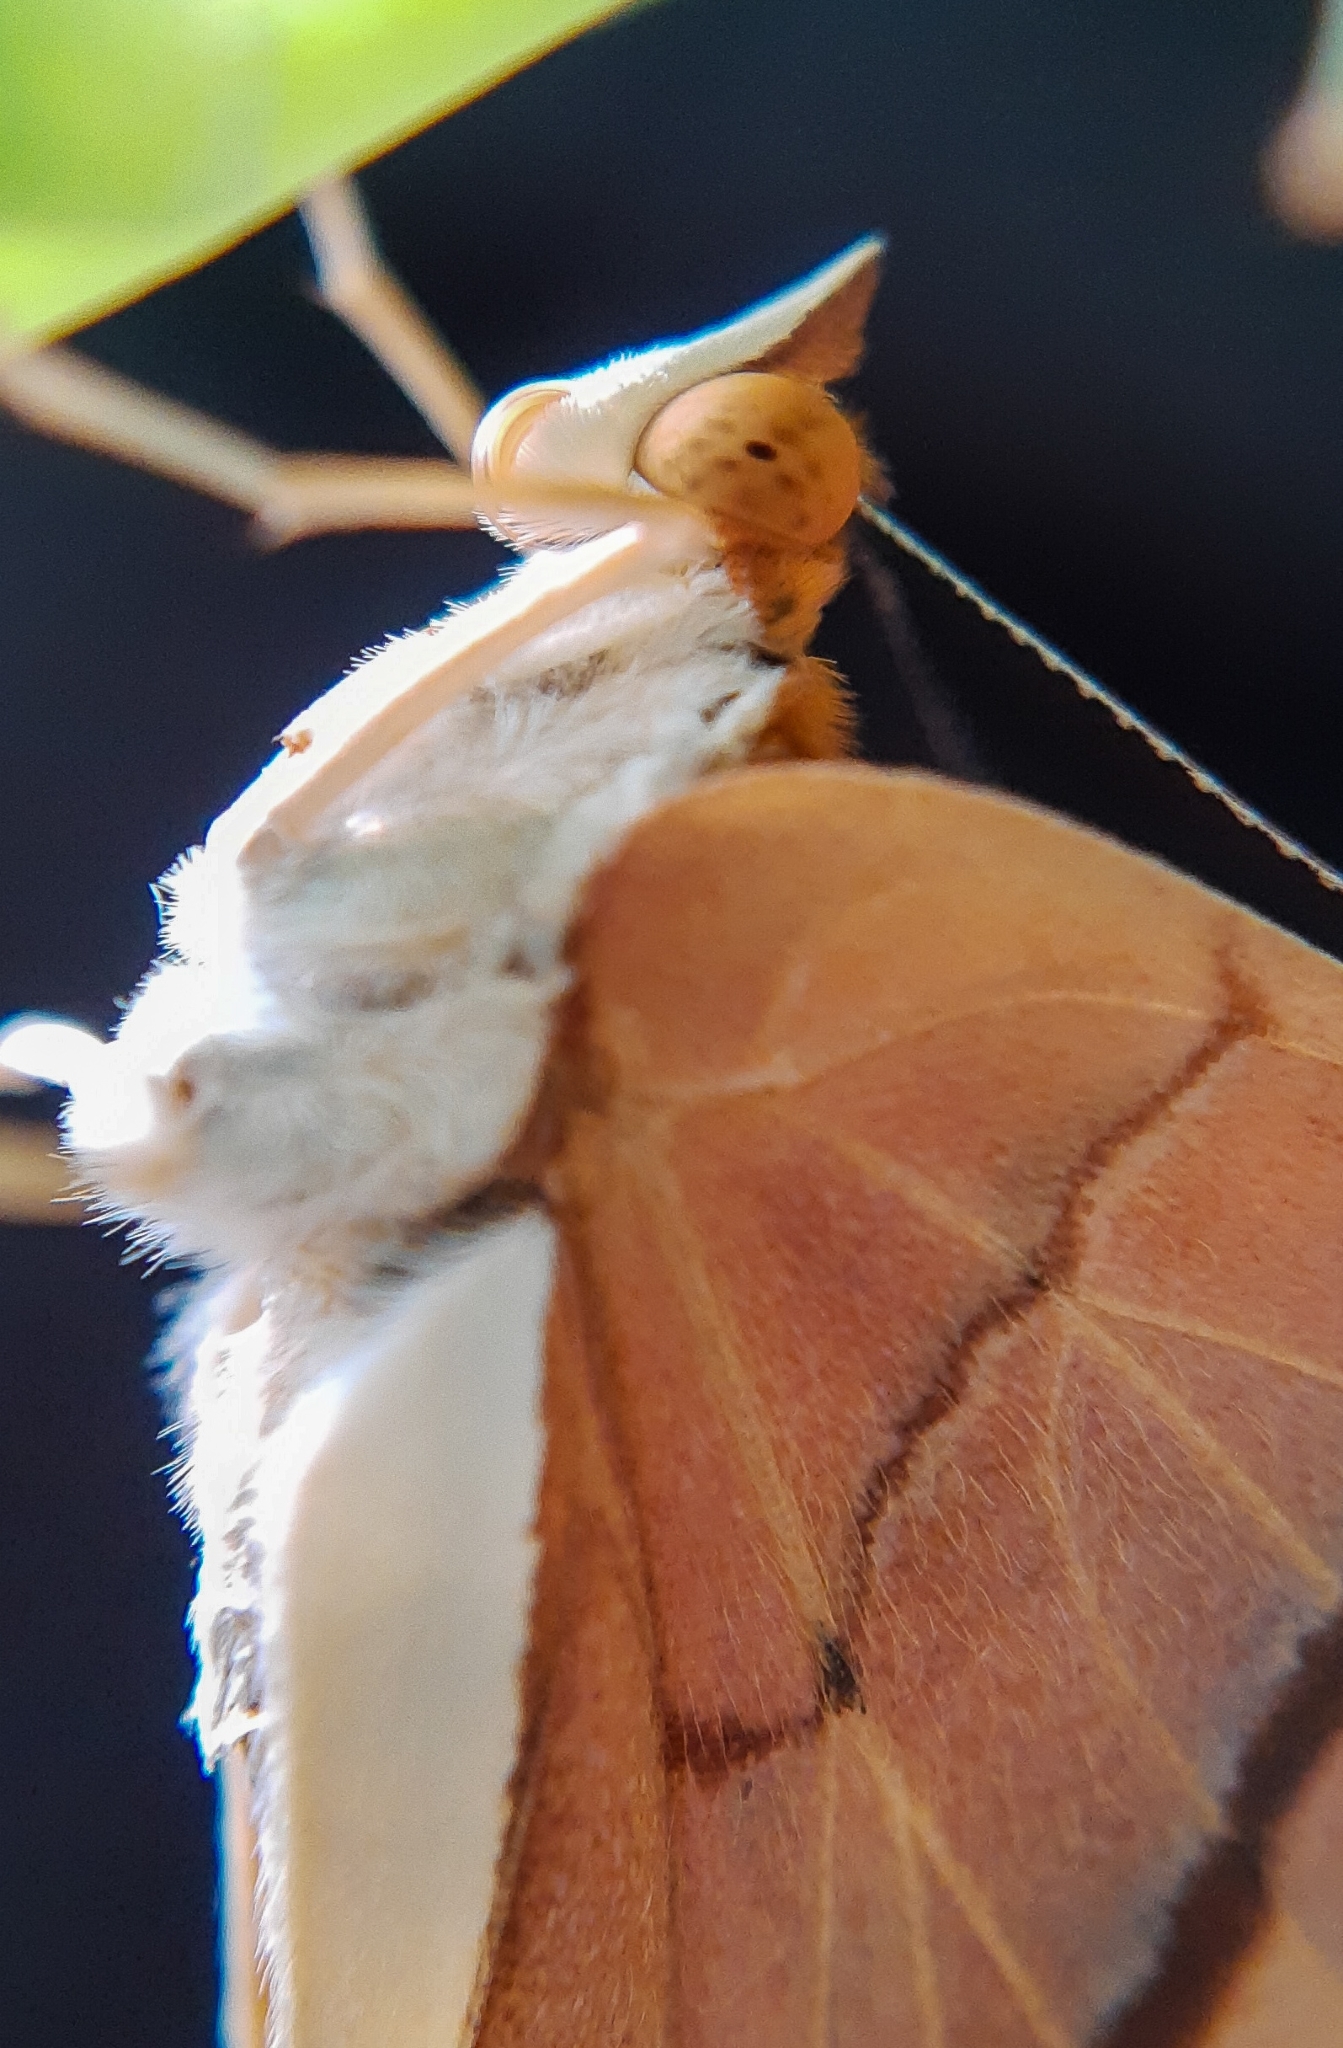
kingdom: Animalia
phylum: Arthropoda
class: Insecta
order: Lepidoptera
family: Nymphalidae
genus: Marpesia
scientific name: Marpesia petreus
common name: Red dagger wing
